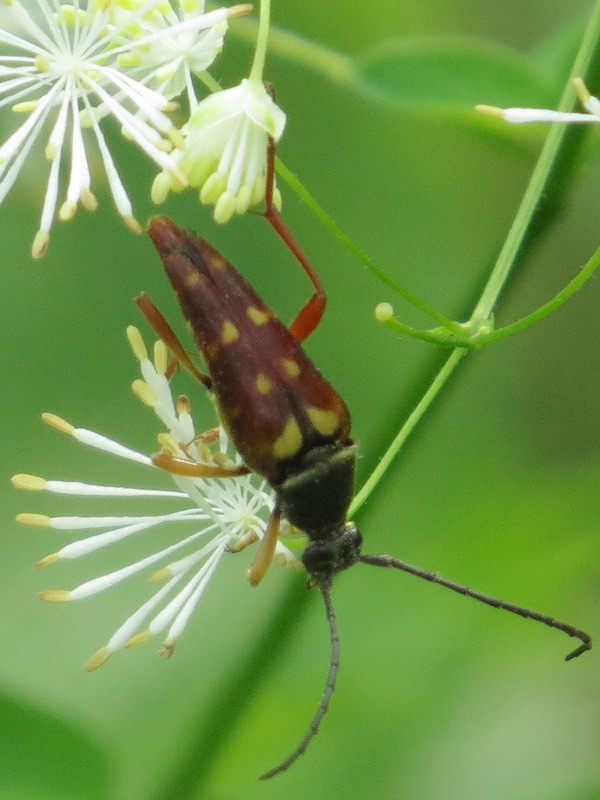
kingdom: Animalia
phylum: Arthropoda
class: Insecta
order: Coleoptera
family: Cerambycidae
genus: Typocerus
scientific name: Typocerus velutinus
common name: Banded longhorn beetle
